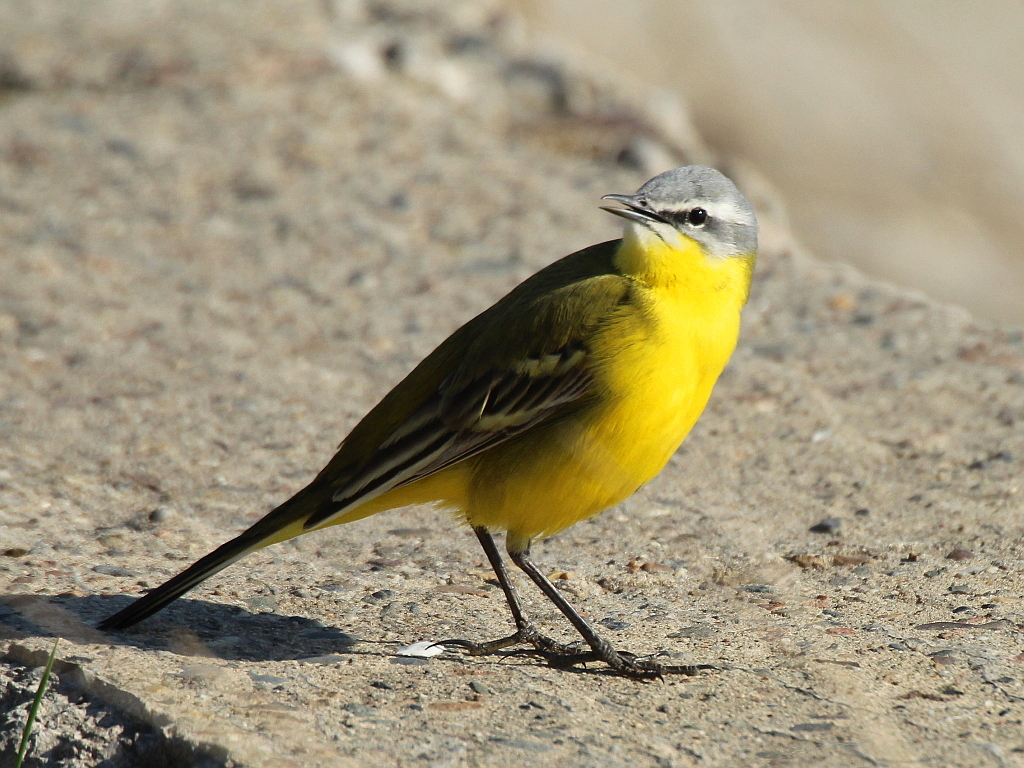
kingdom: Animalia
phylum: Chordata
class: Aves
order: Passeriformes
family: Motacillidae
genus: Motacilla
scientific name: Motacilla flava
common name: Western yellow wagtail
